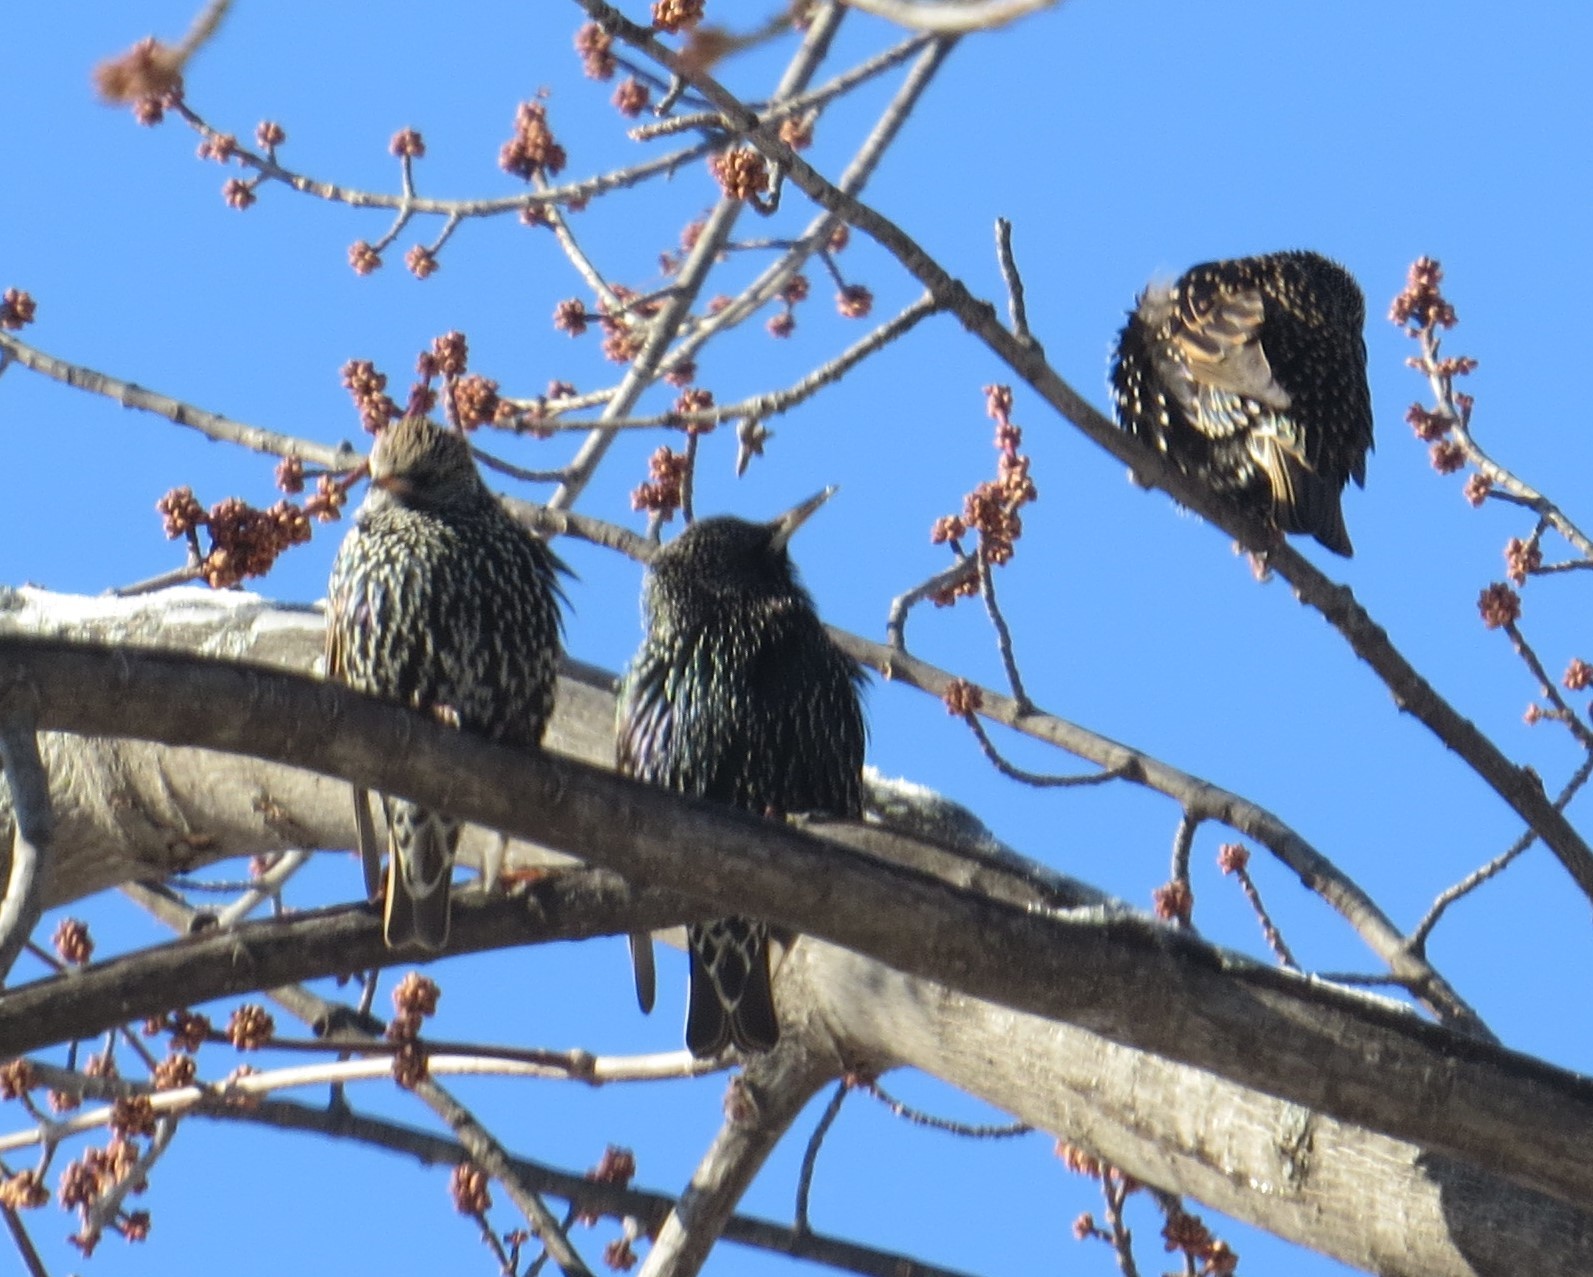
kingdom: Animalia
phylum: Chordata
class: Aves
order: Passeriformes
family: Sturnidae
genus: Sturnus
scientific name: Sturnus vulgaris
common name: Common starling
